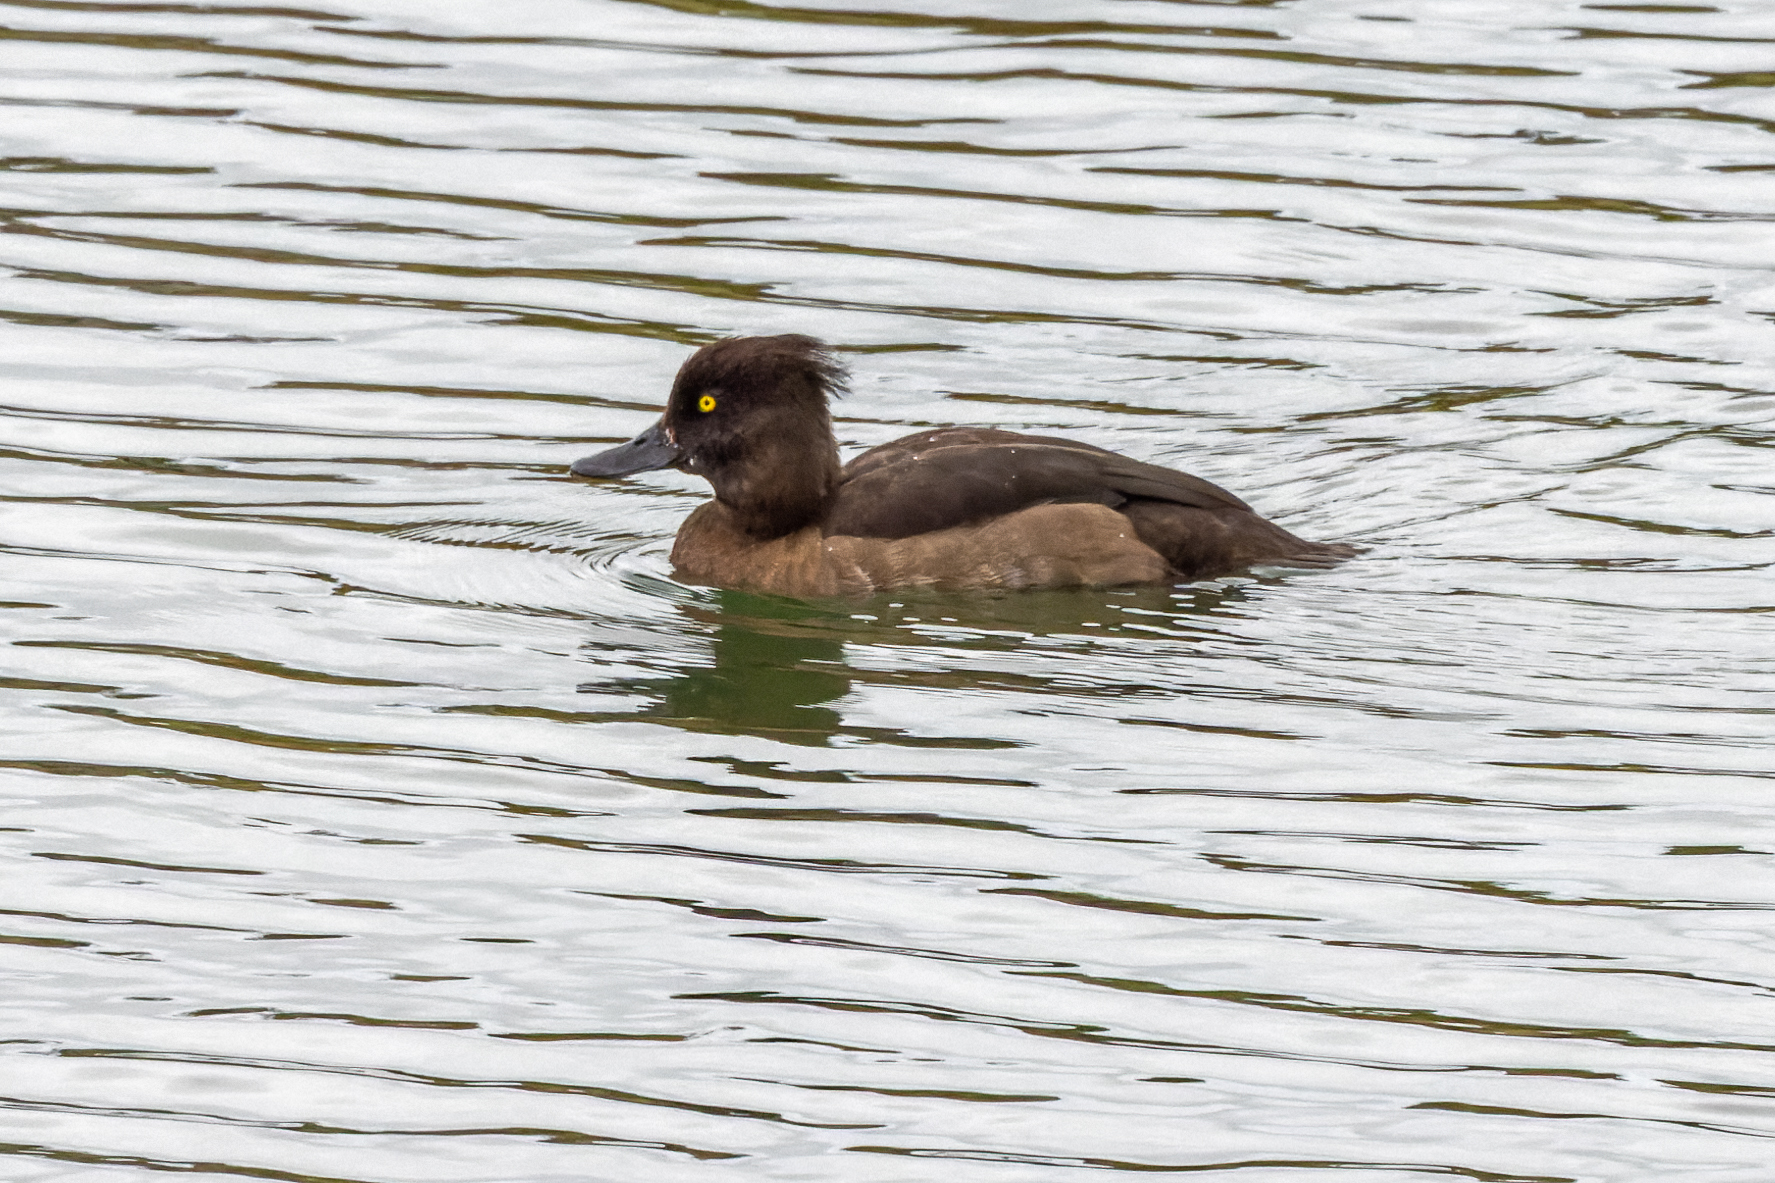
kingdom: Animalia
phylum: Chordata
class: Aves
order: Anseriformes
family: Anatidae
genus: Aythya
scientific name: Aythya fuligula
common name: Tufted duck
